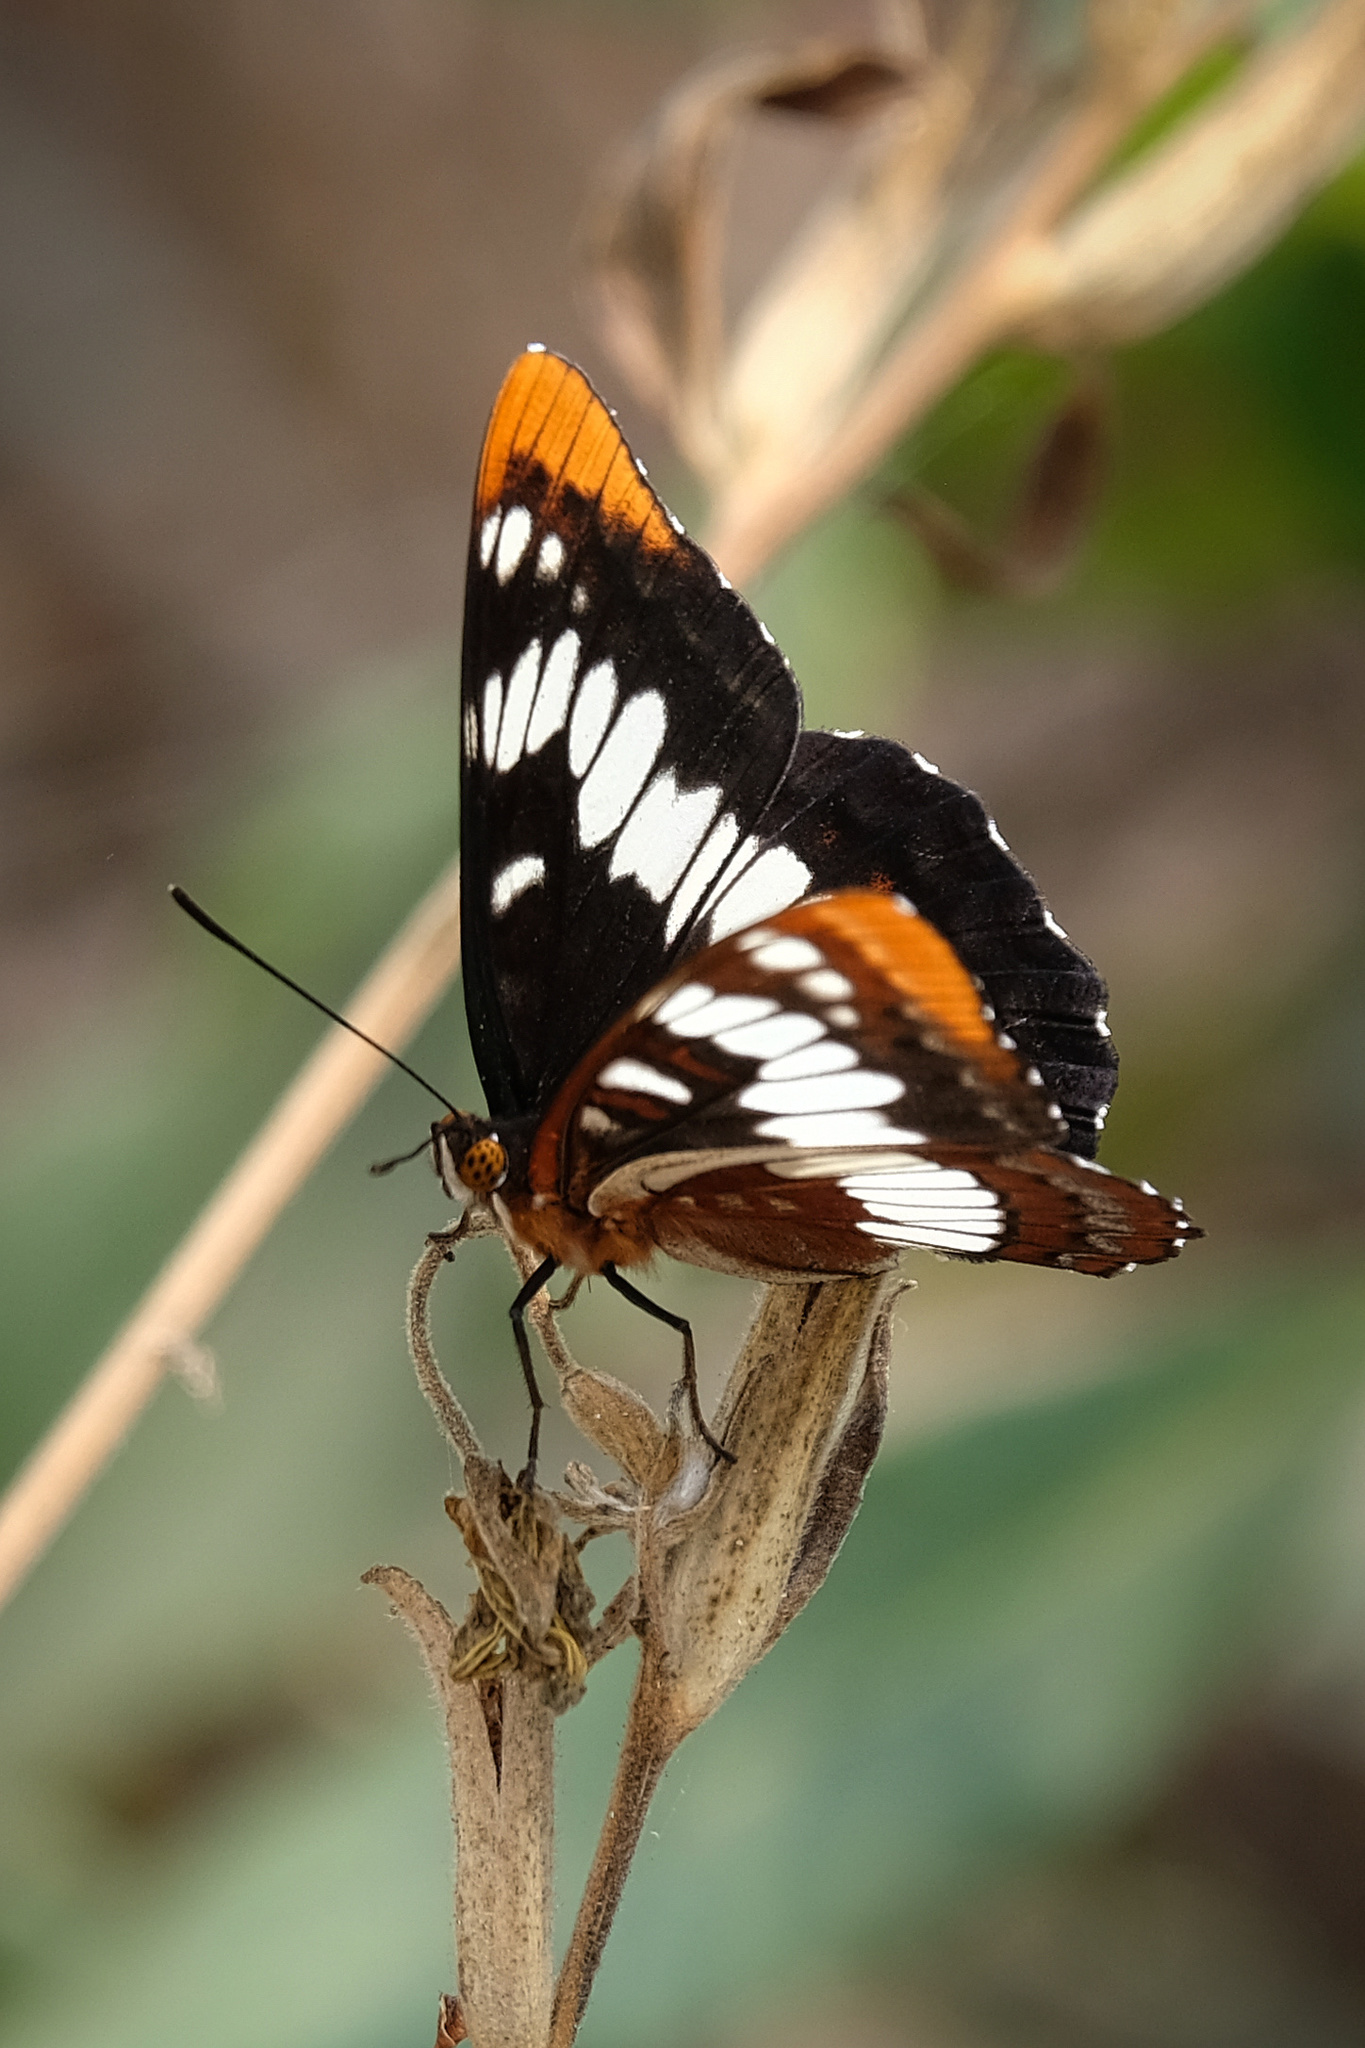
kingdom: Animalia
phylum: Arthropoda
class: Insecta
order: Lepidoptera
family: Nymphalidae
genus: Limenitis
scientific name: Limenitis lorquini
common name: Lorquin's admiral
